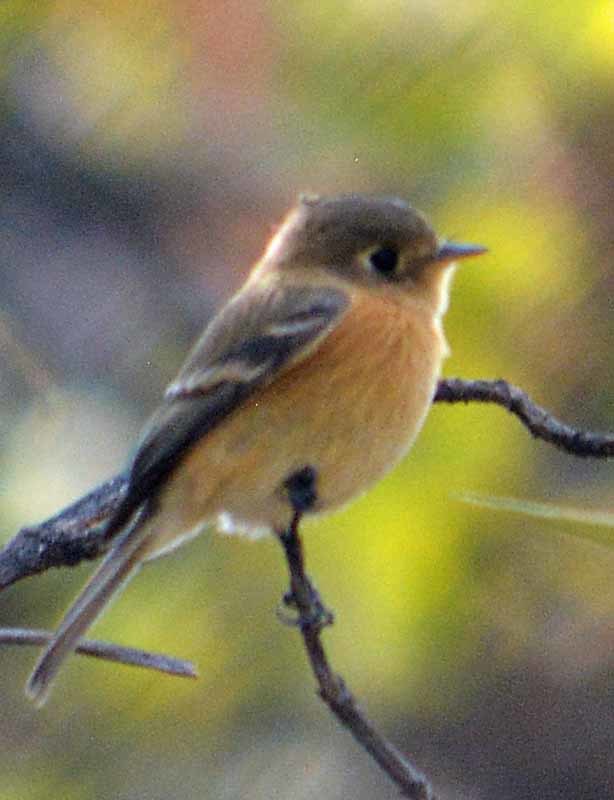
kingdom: Animalia
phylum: Chordata
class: Aves
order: Passeriformes
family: Tyrannidae
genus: Empidonax
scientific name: Empidonax fulvifrons
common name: Buff-breasted flycatcher
